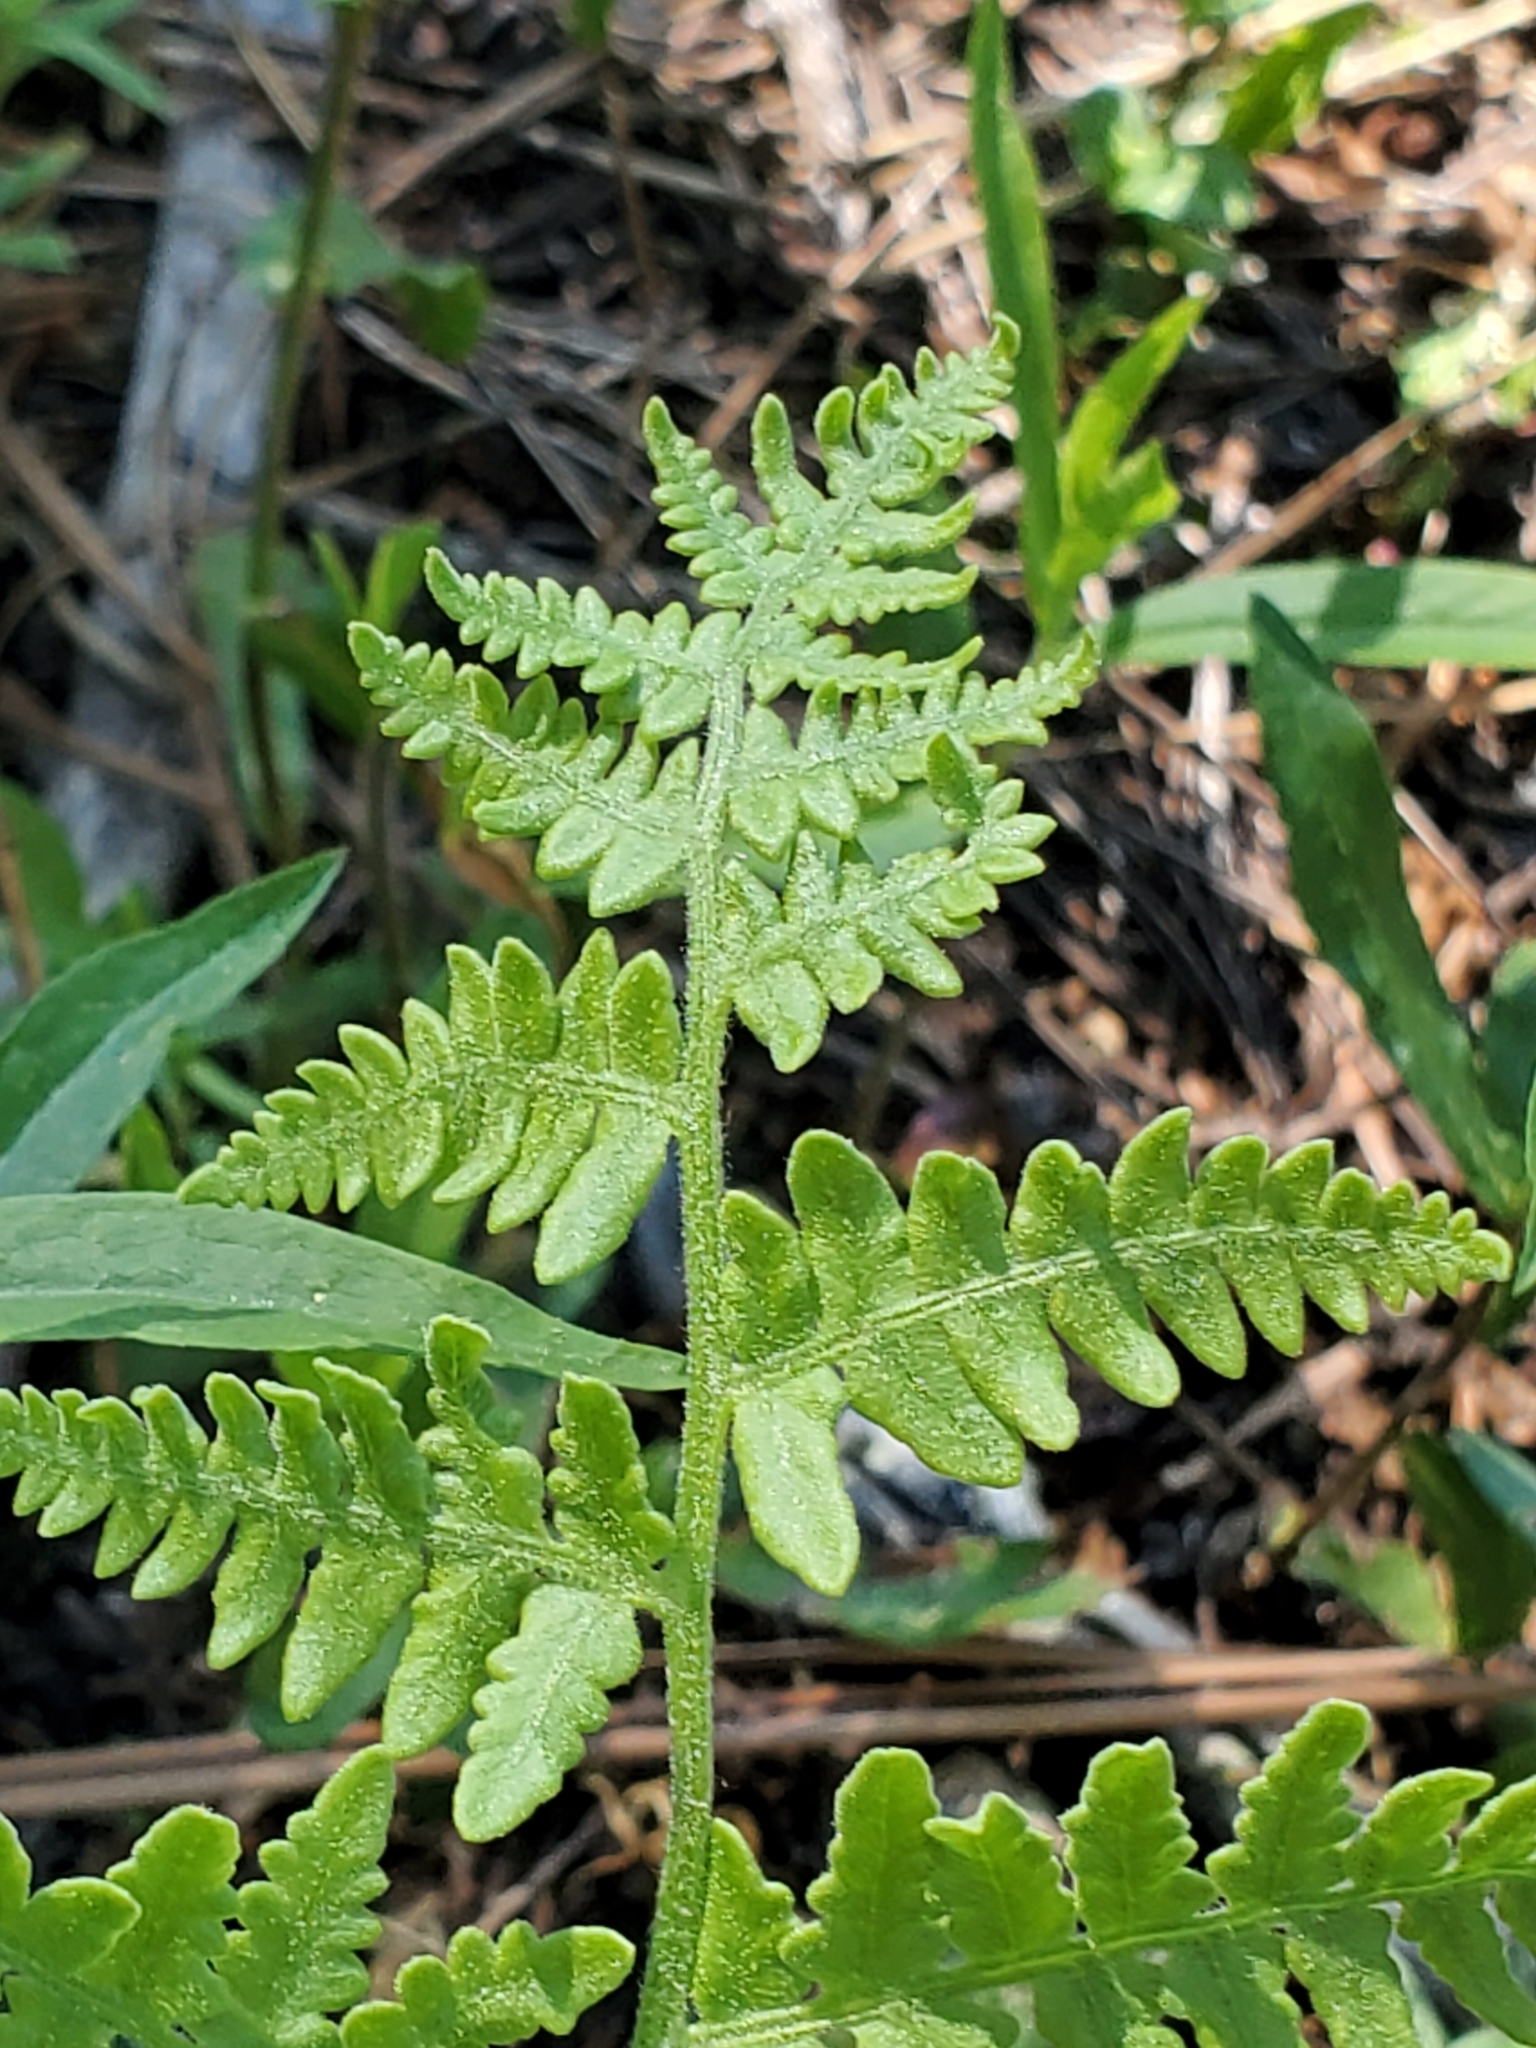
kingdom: Plantae
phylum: Tracheophyta
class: Polypodiopsida
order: Polypodiales
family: Dennstaedtiaceae
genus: Pteridium
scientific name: Pteridium aquilinum
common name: Bracken
